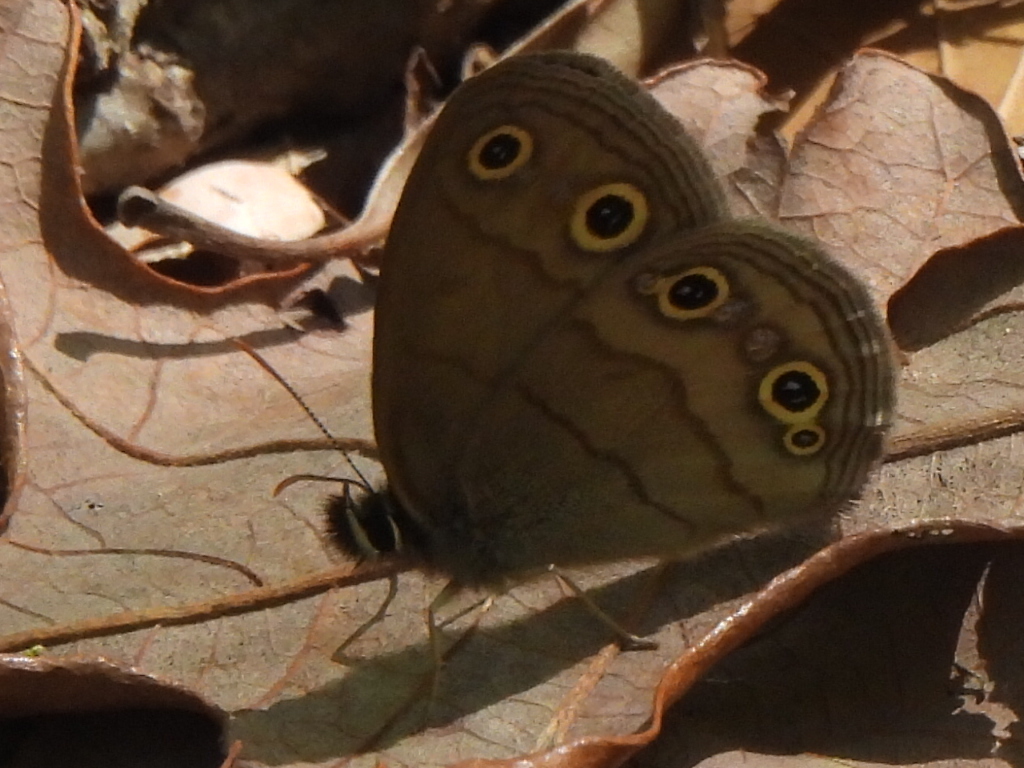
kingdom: Animalia
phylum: Arthropoda
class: Insecta
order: Lepidoptera
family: Nymphalidae
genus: Euptychia
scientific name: Euptychia cymela
